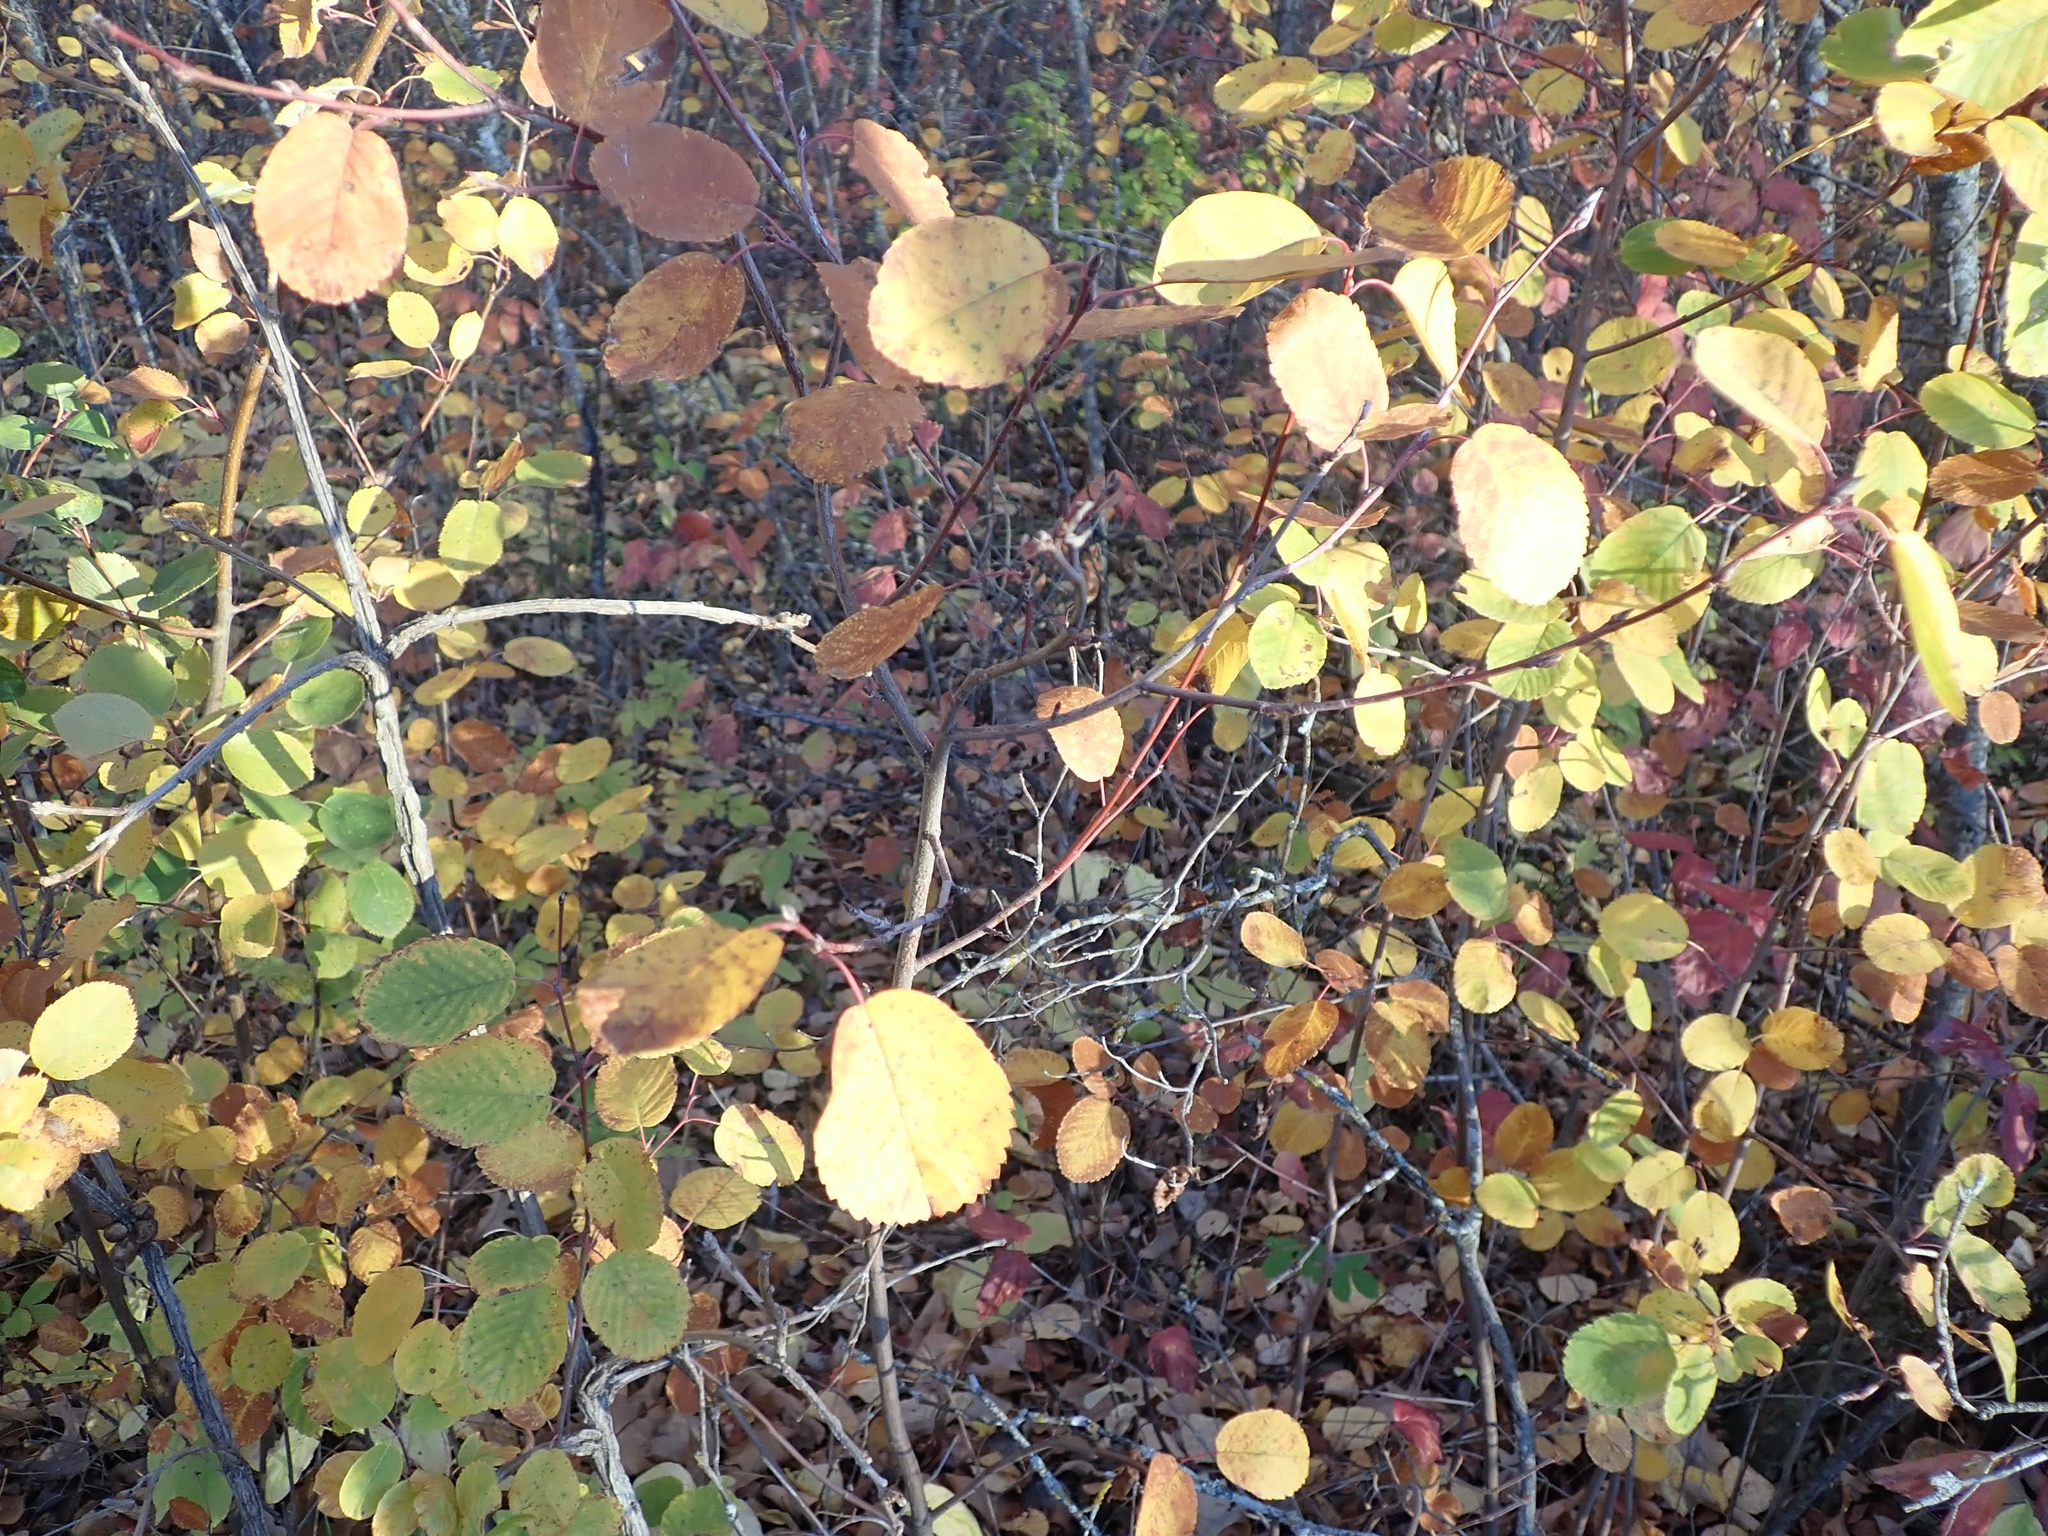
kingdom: Plantae
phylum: Tracheophyta
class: Magnoliopsida
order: Rosales
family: Rosaceae
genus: Amelanchier
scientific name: Amelanchier alnifolia
